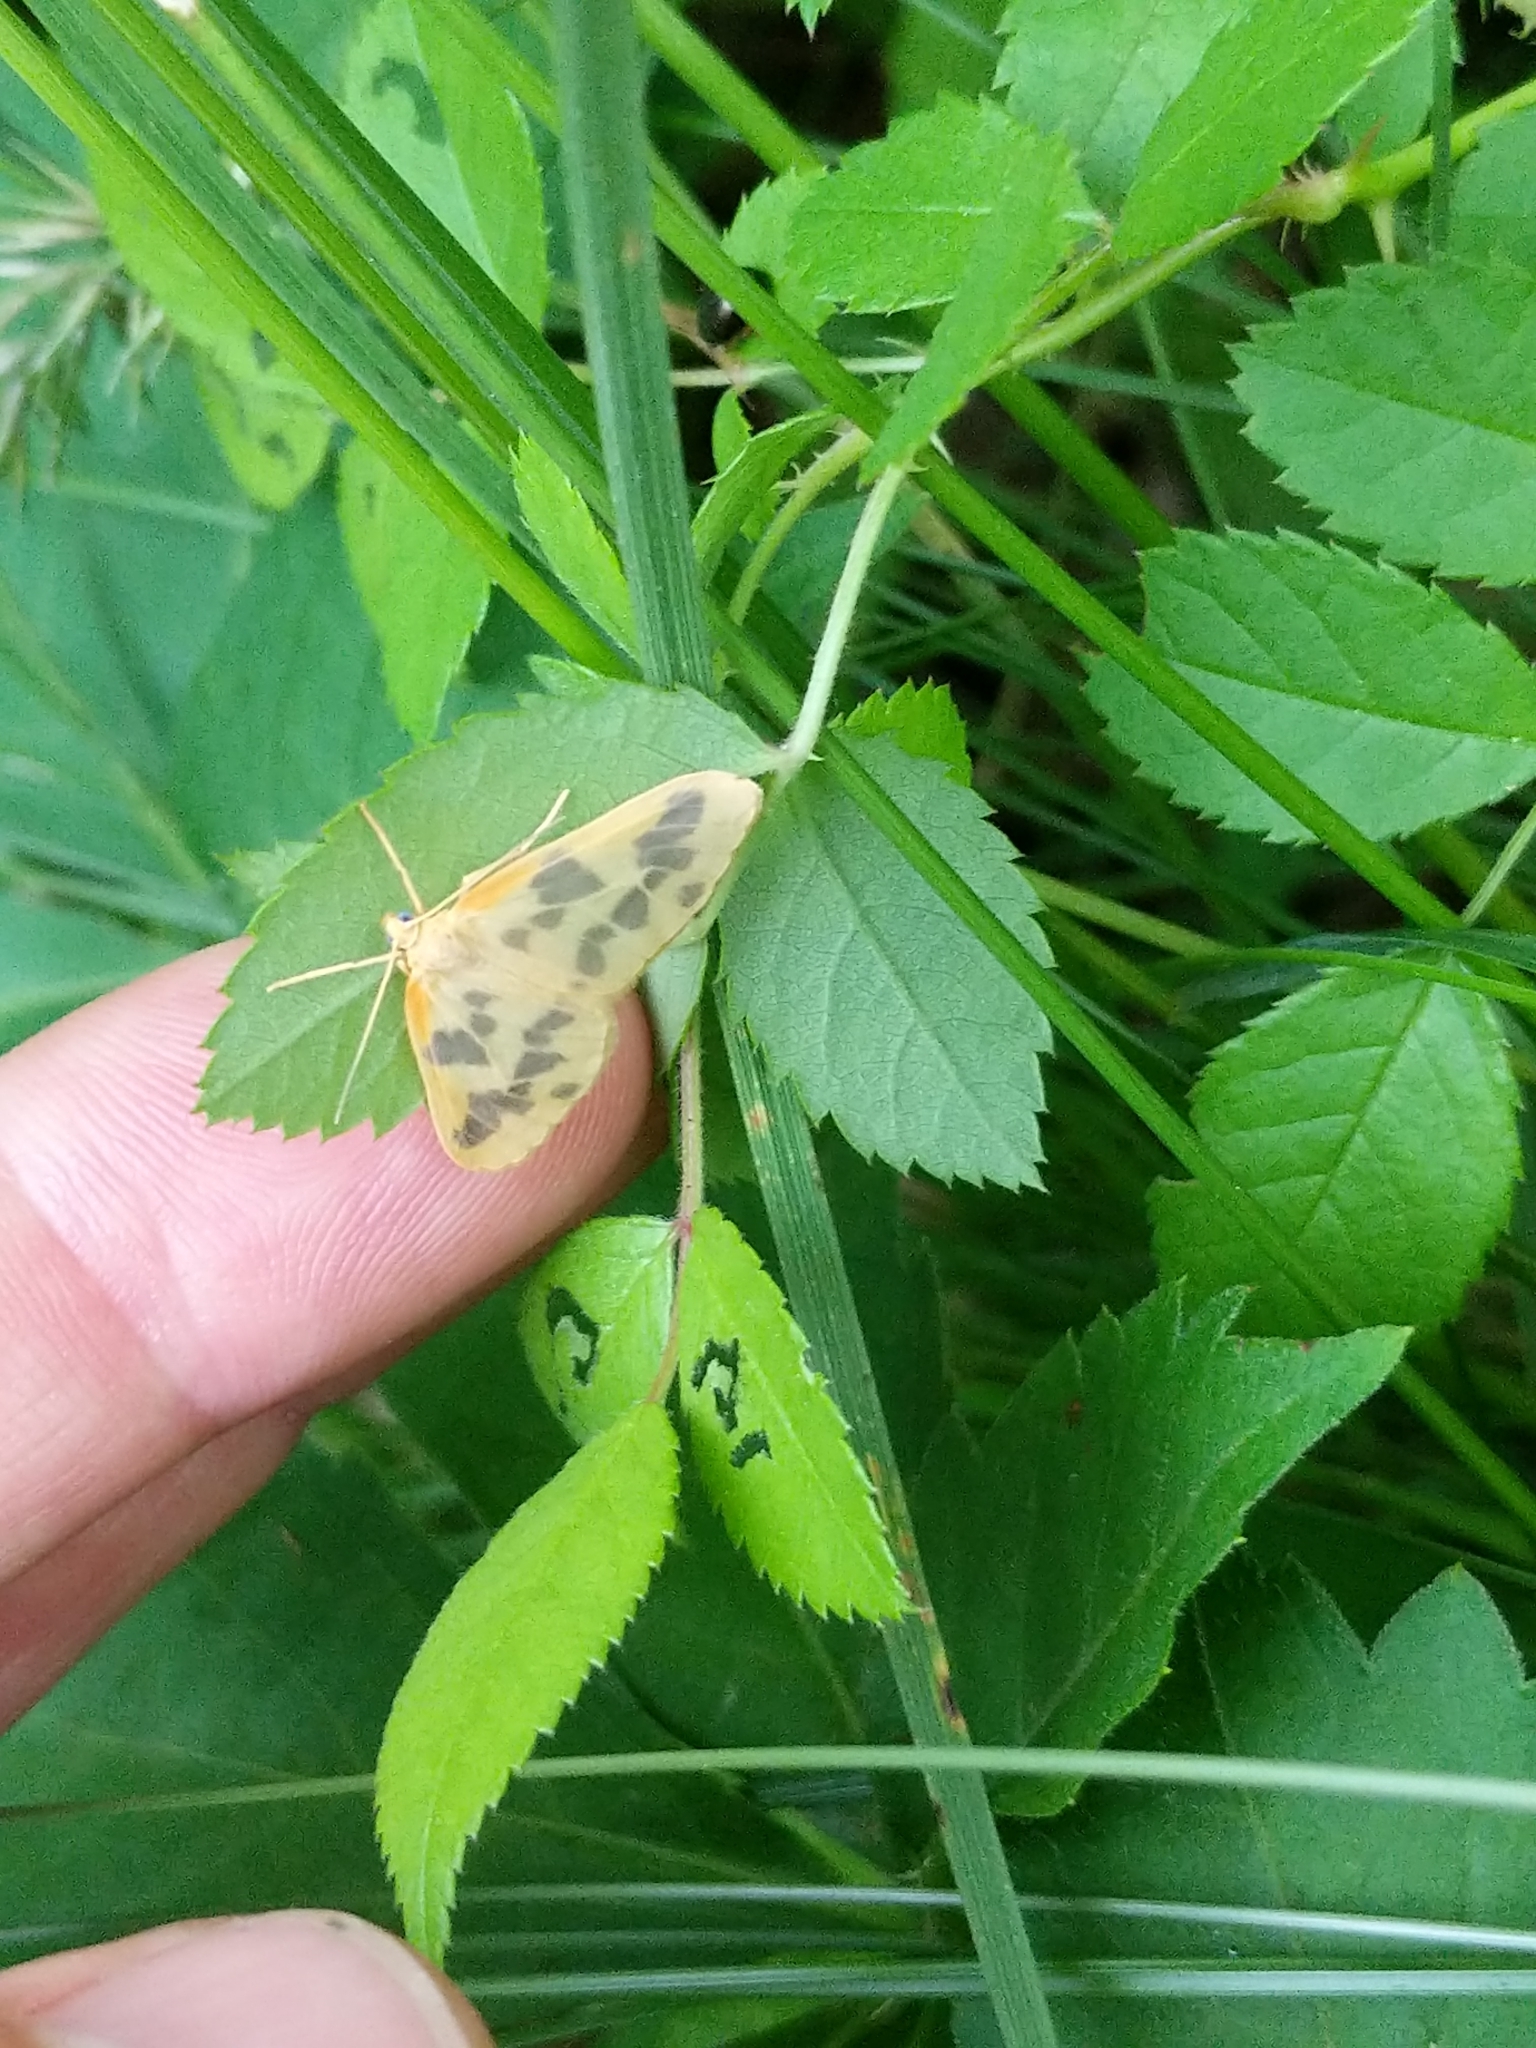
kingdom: Animalia
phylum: Arthropoda
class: Insecta
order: Lepidoptera
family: Geometridae
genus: Eubaphe
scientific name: Eubaphe mendica
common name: Beggar
